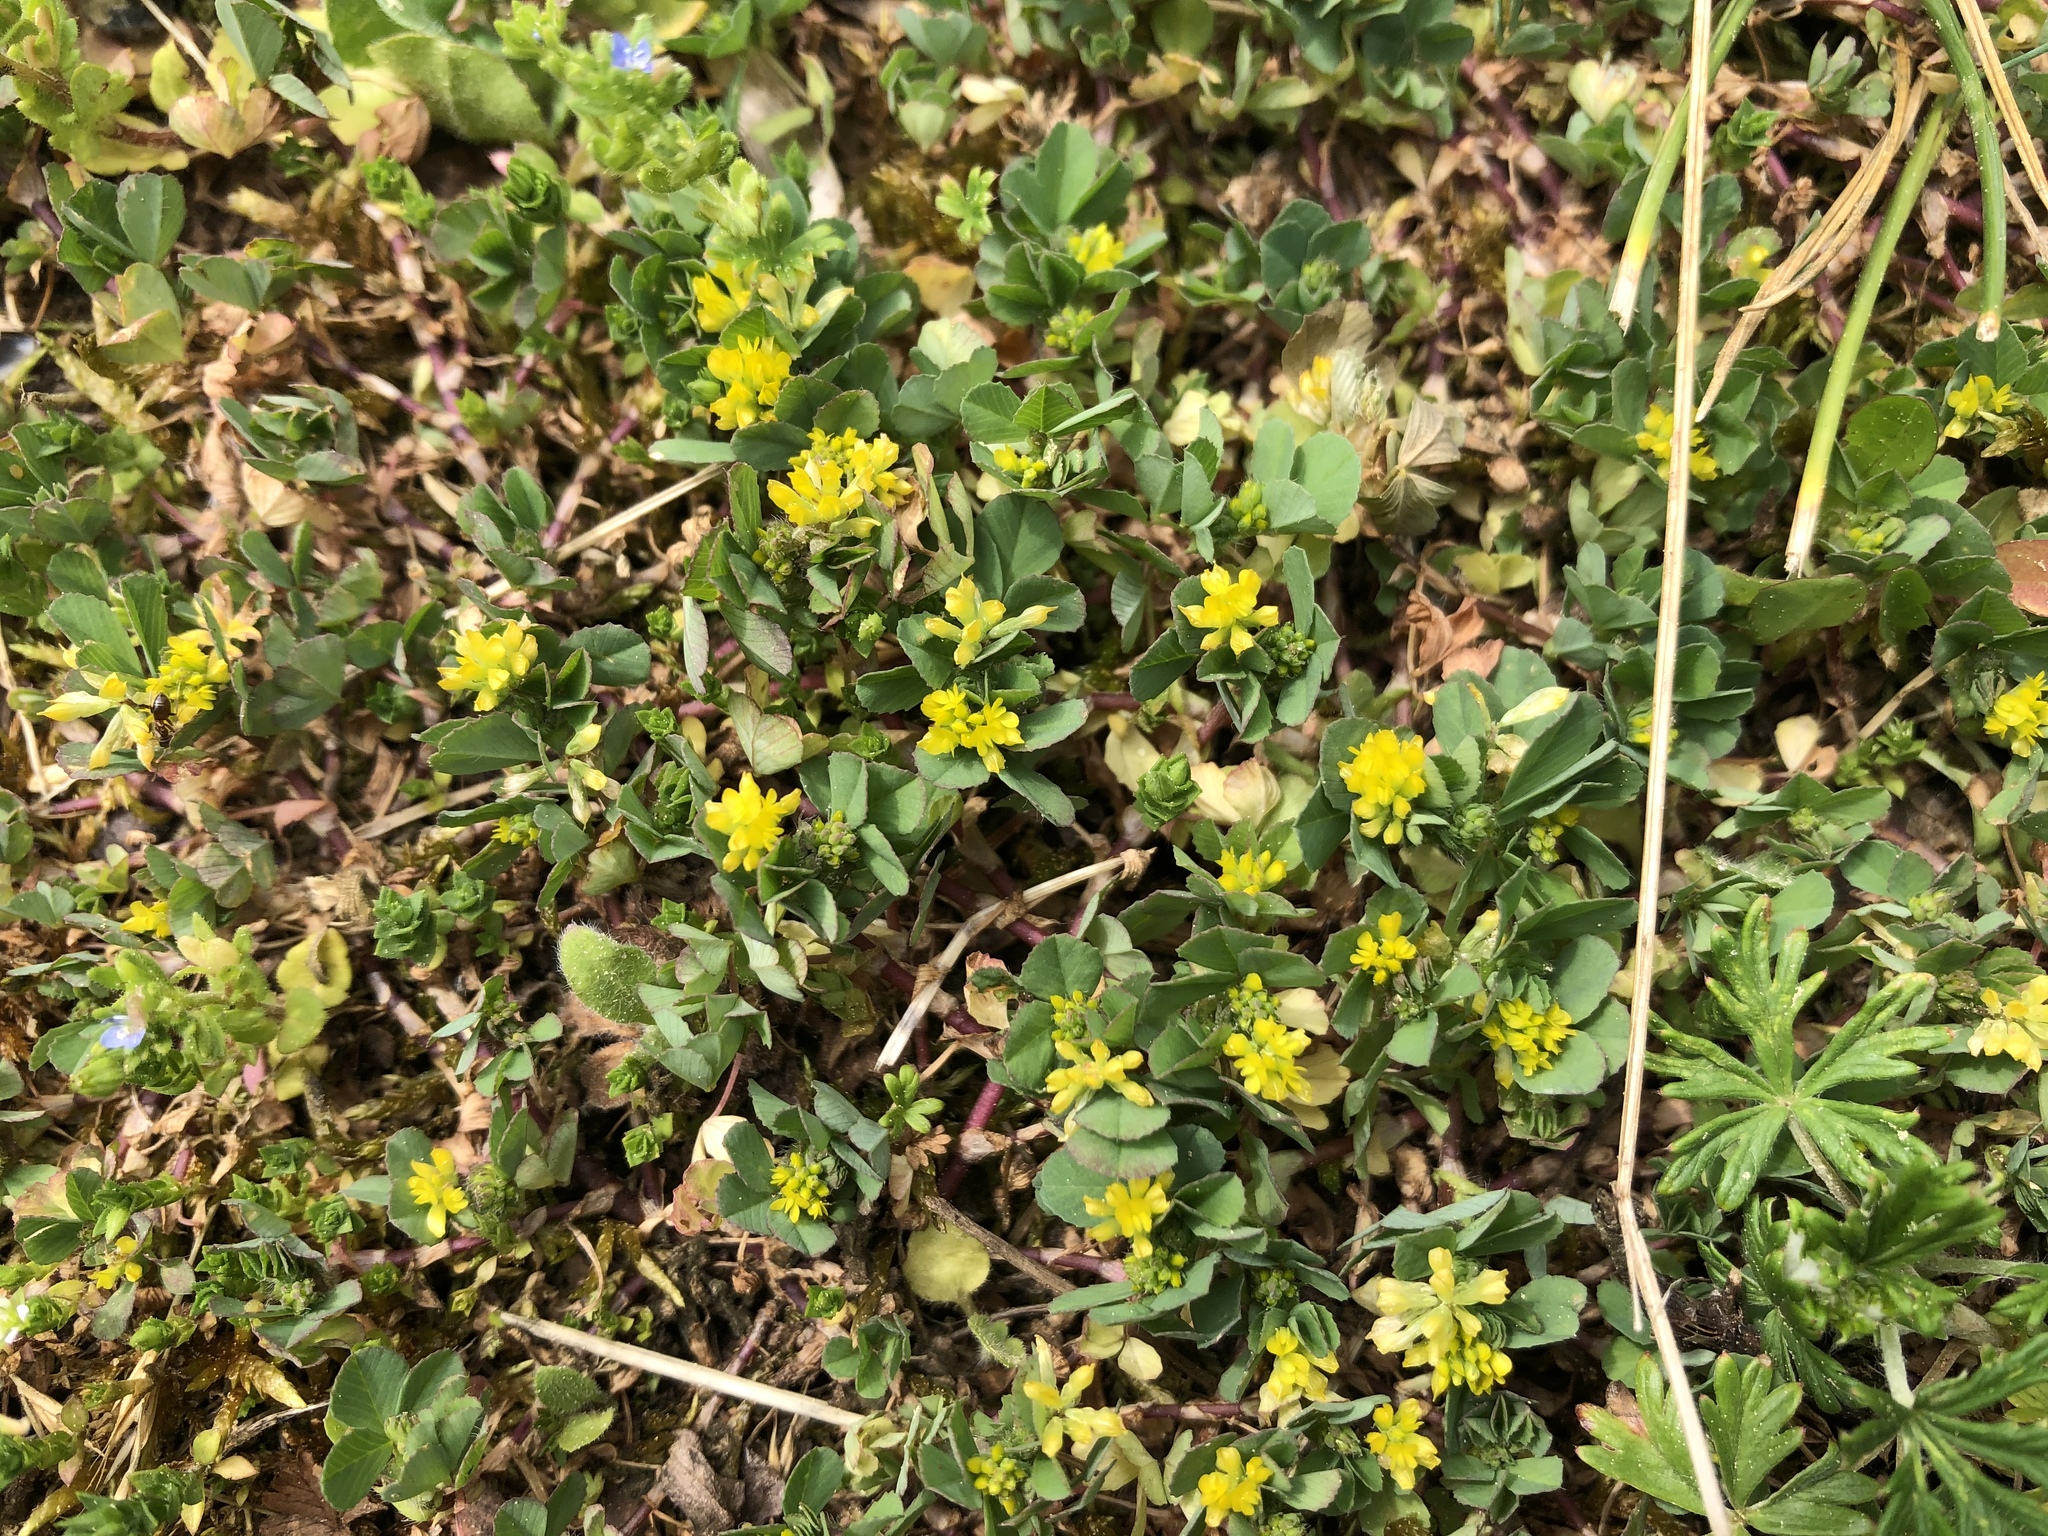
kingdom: Plantae
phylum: Tracheophyta
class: Magnoliopsida
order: Fabales
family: Fabaceae
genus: Trifolium
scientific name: Trifolium dubium
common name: Suckling clover
